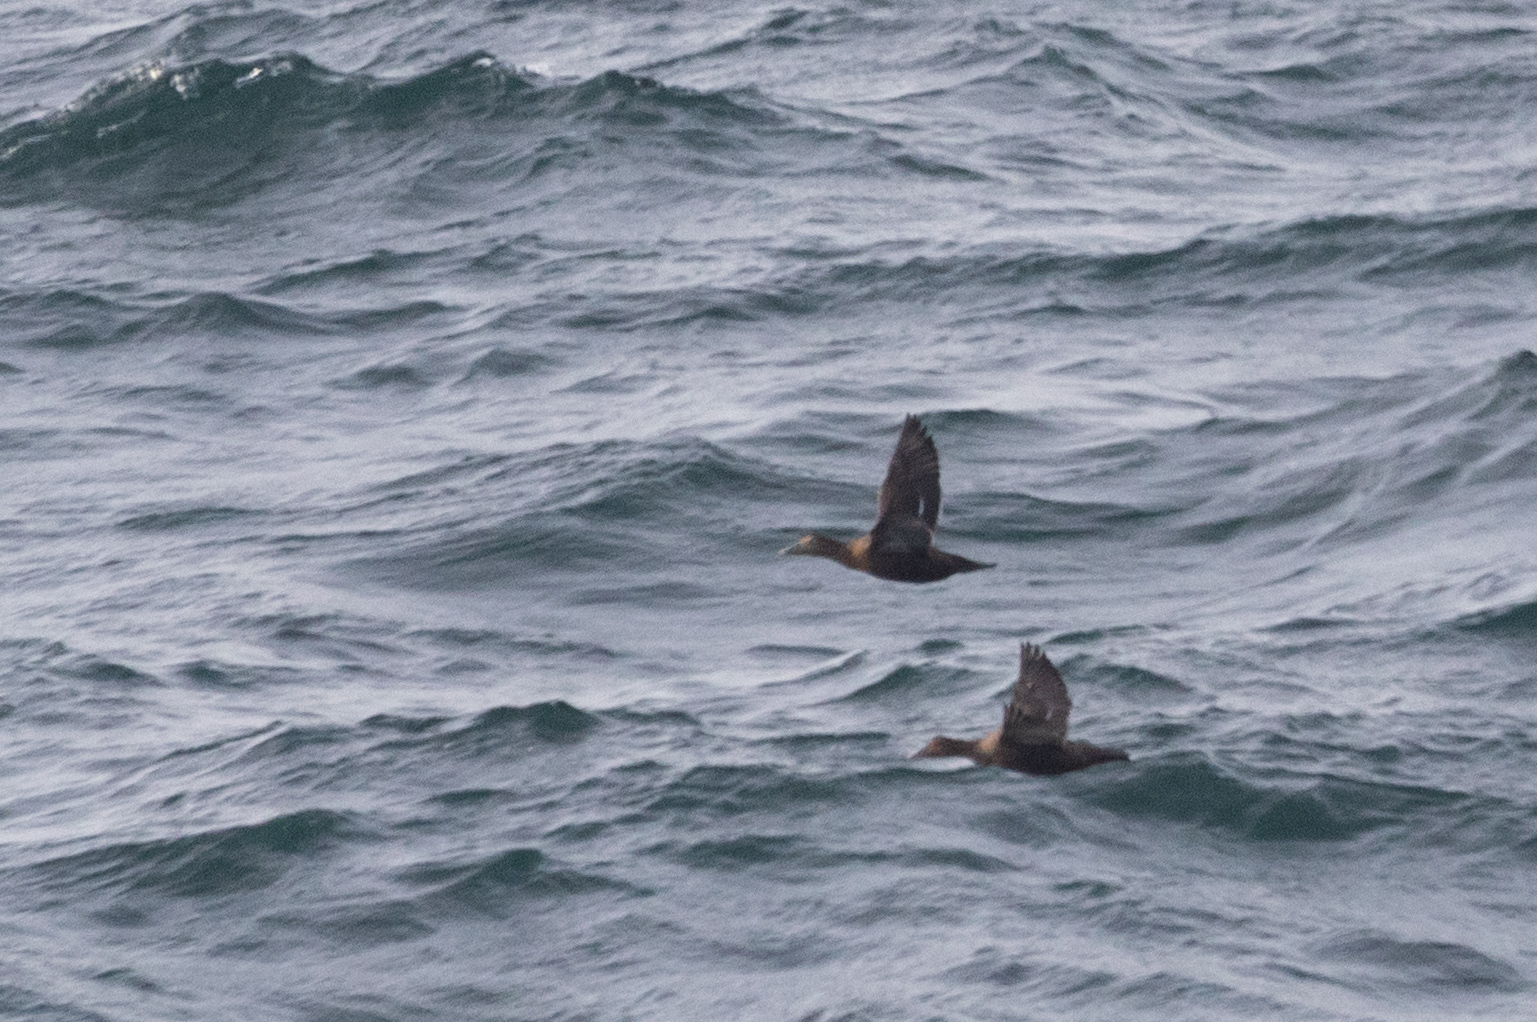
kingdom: Animalia
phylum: Chordata
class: Aves
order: Anseriformes
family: Anatidae
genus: Somateria
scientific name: Somateria mollissima
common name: Common eider
